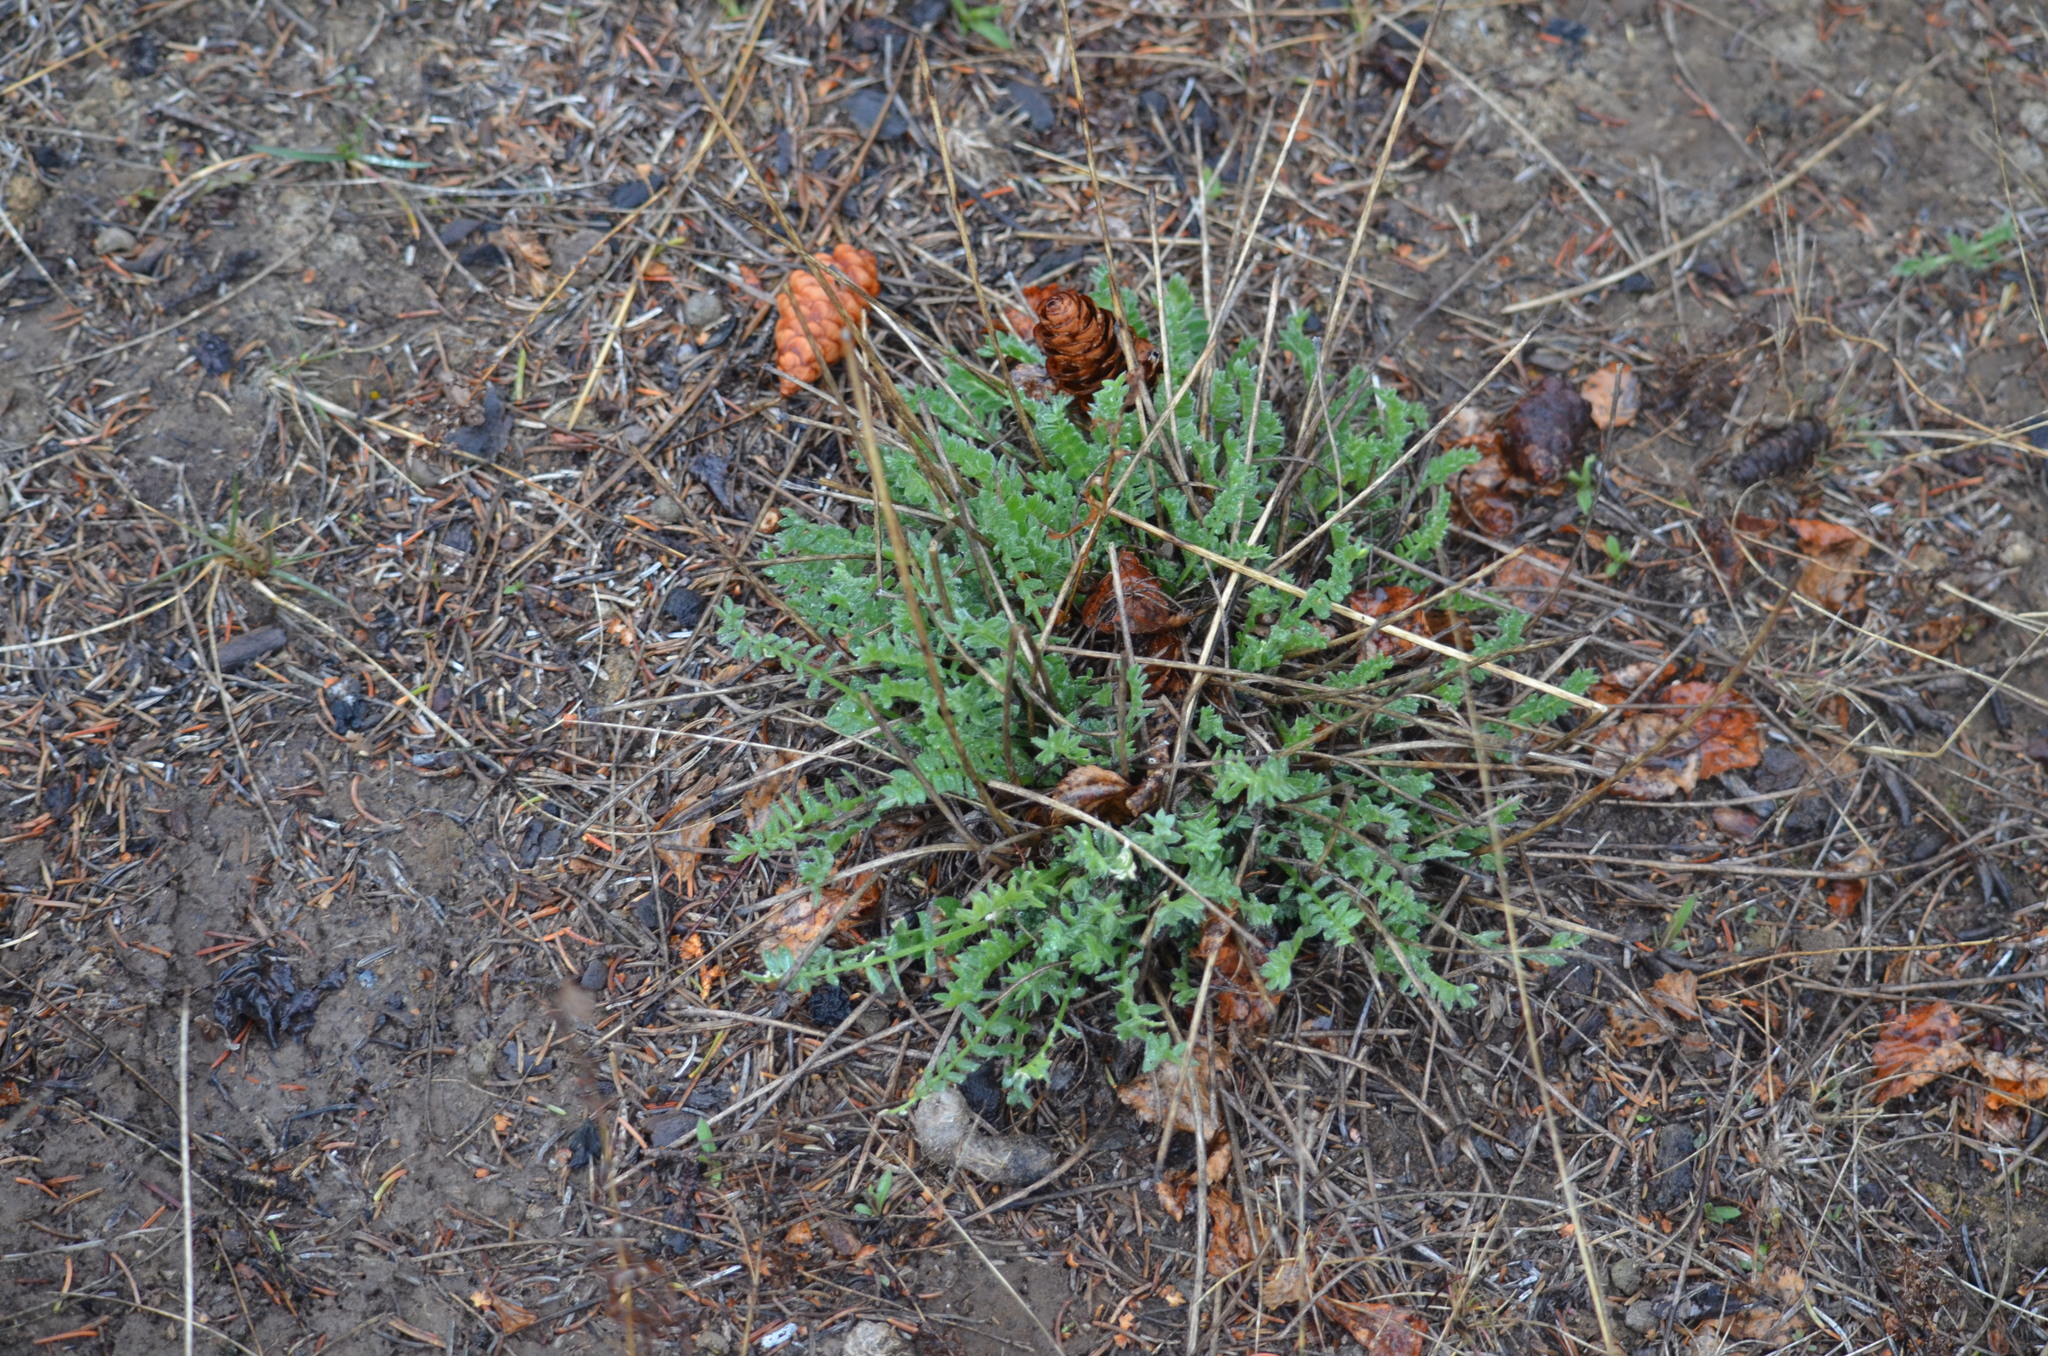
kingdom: Plantae
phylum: Tracheophyta
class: Magnoliopsida
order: Ericales
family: Polemoniaceae
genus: Polemonium
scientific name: Polemonium pulcherrimum
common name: Short jacob's-ladder
